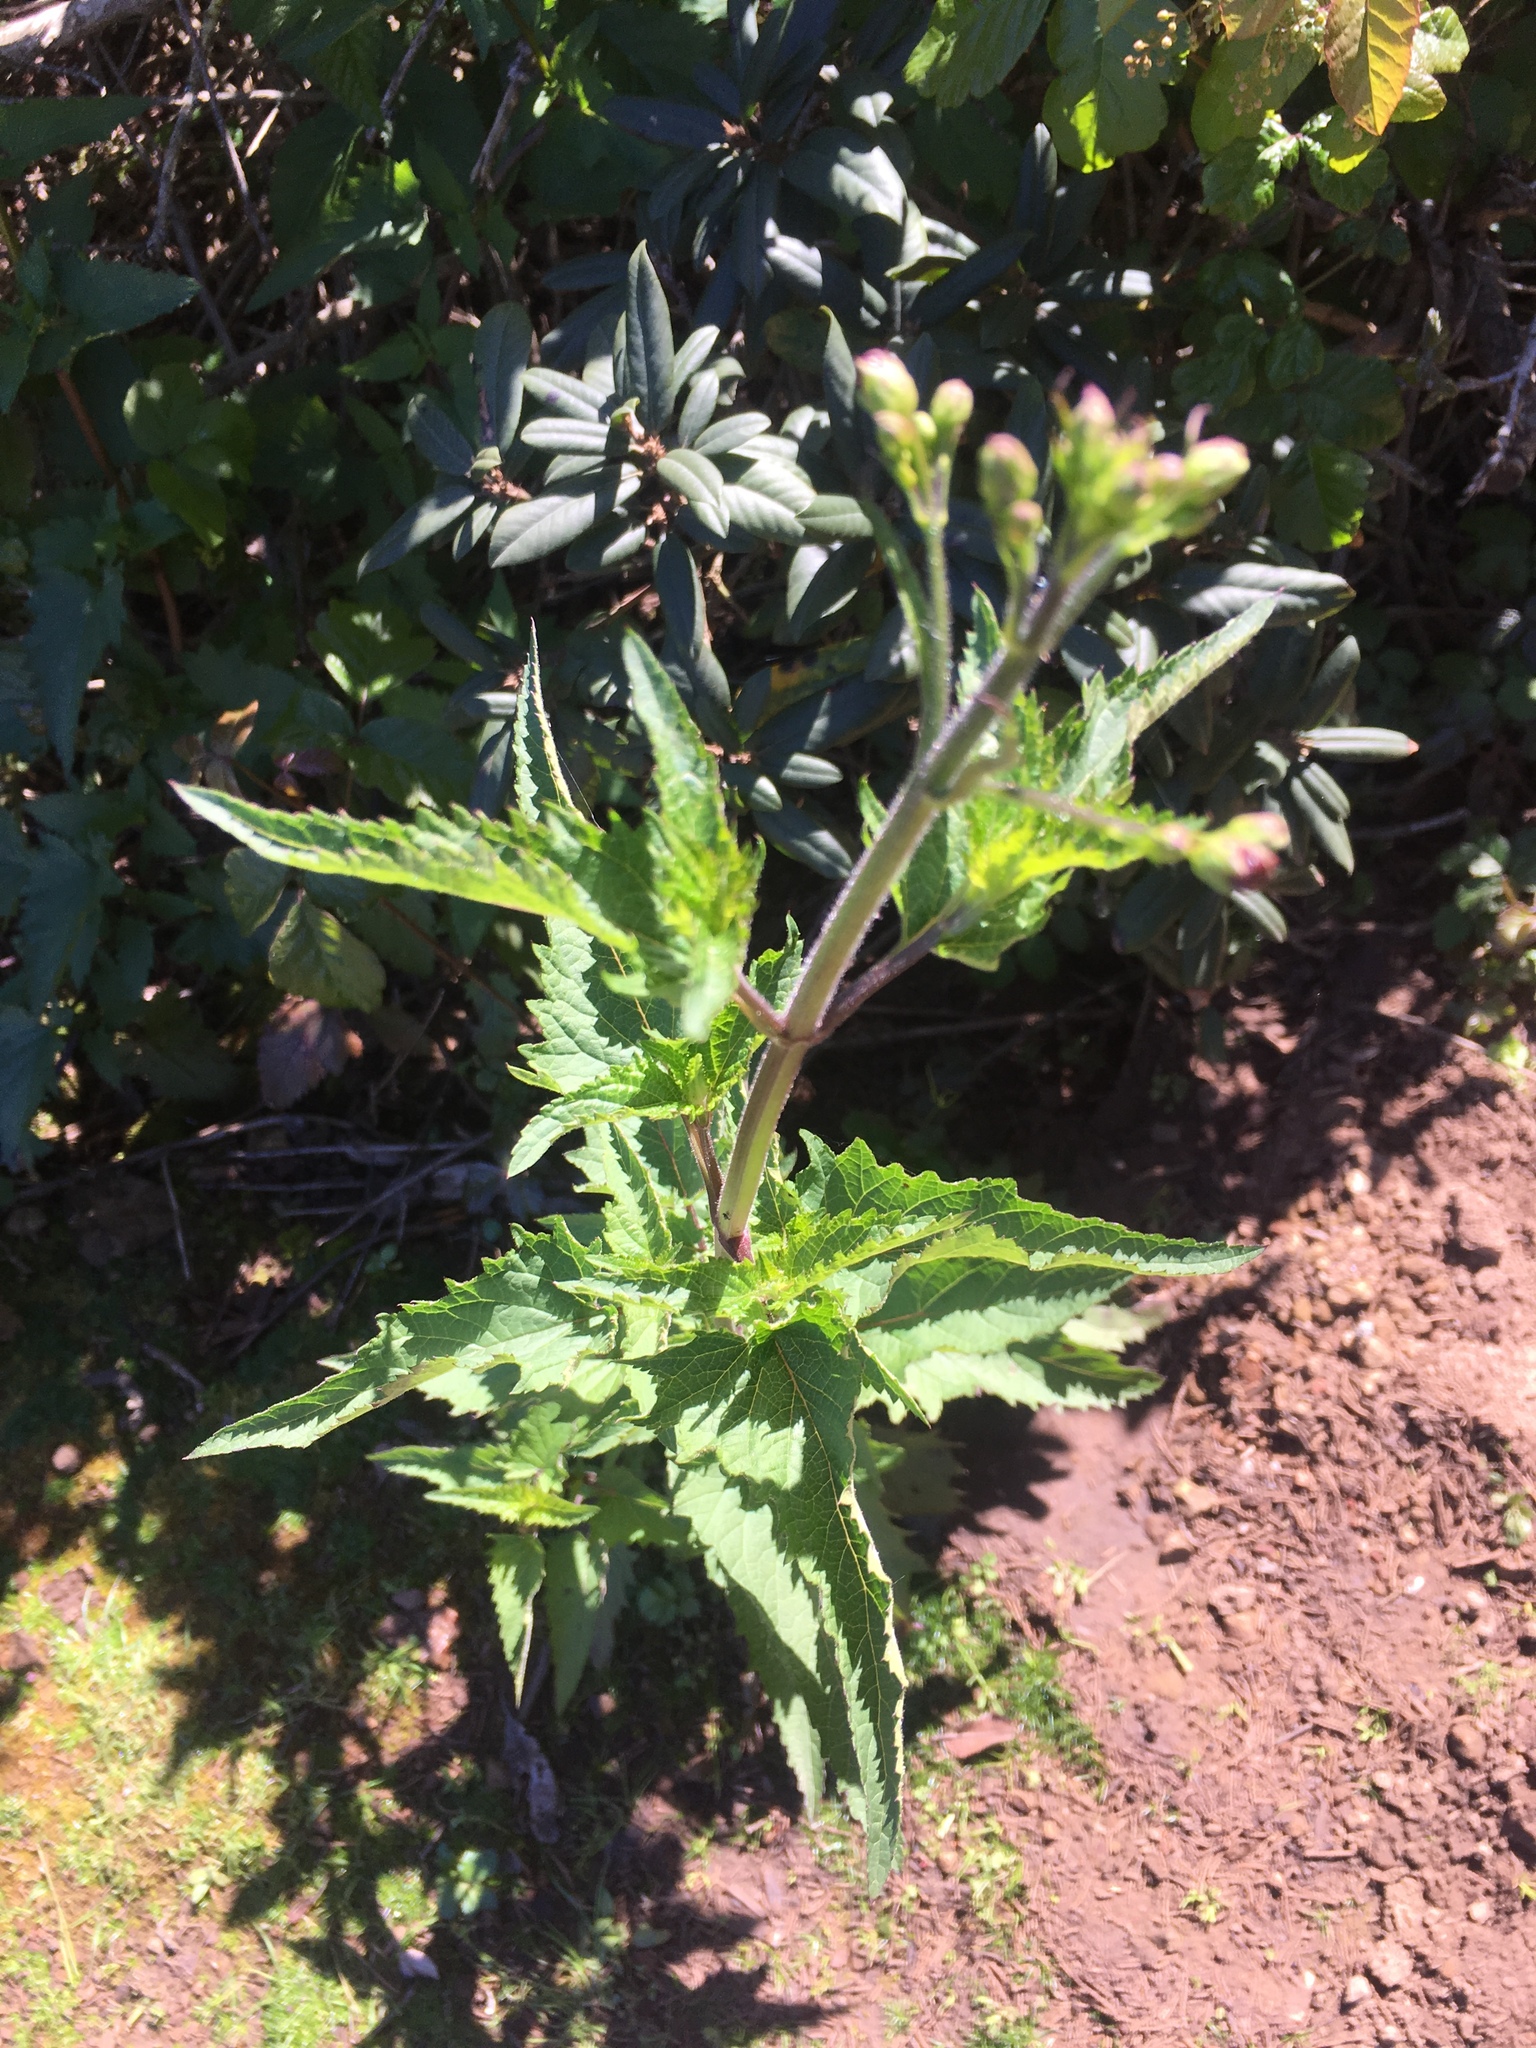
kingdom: Plantae
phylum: Tracheophyta
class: Magnoliopsida
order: Lamiales
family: Scrophulariaceae
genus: Scrophularia
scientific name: Scrophularia californica
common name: California figwort
